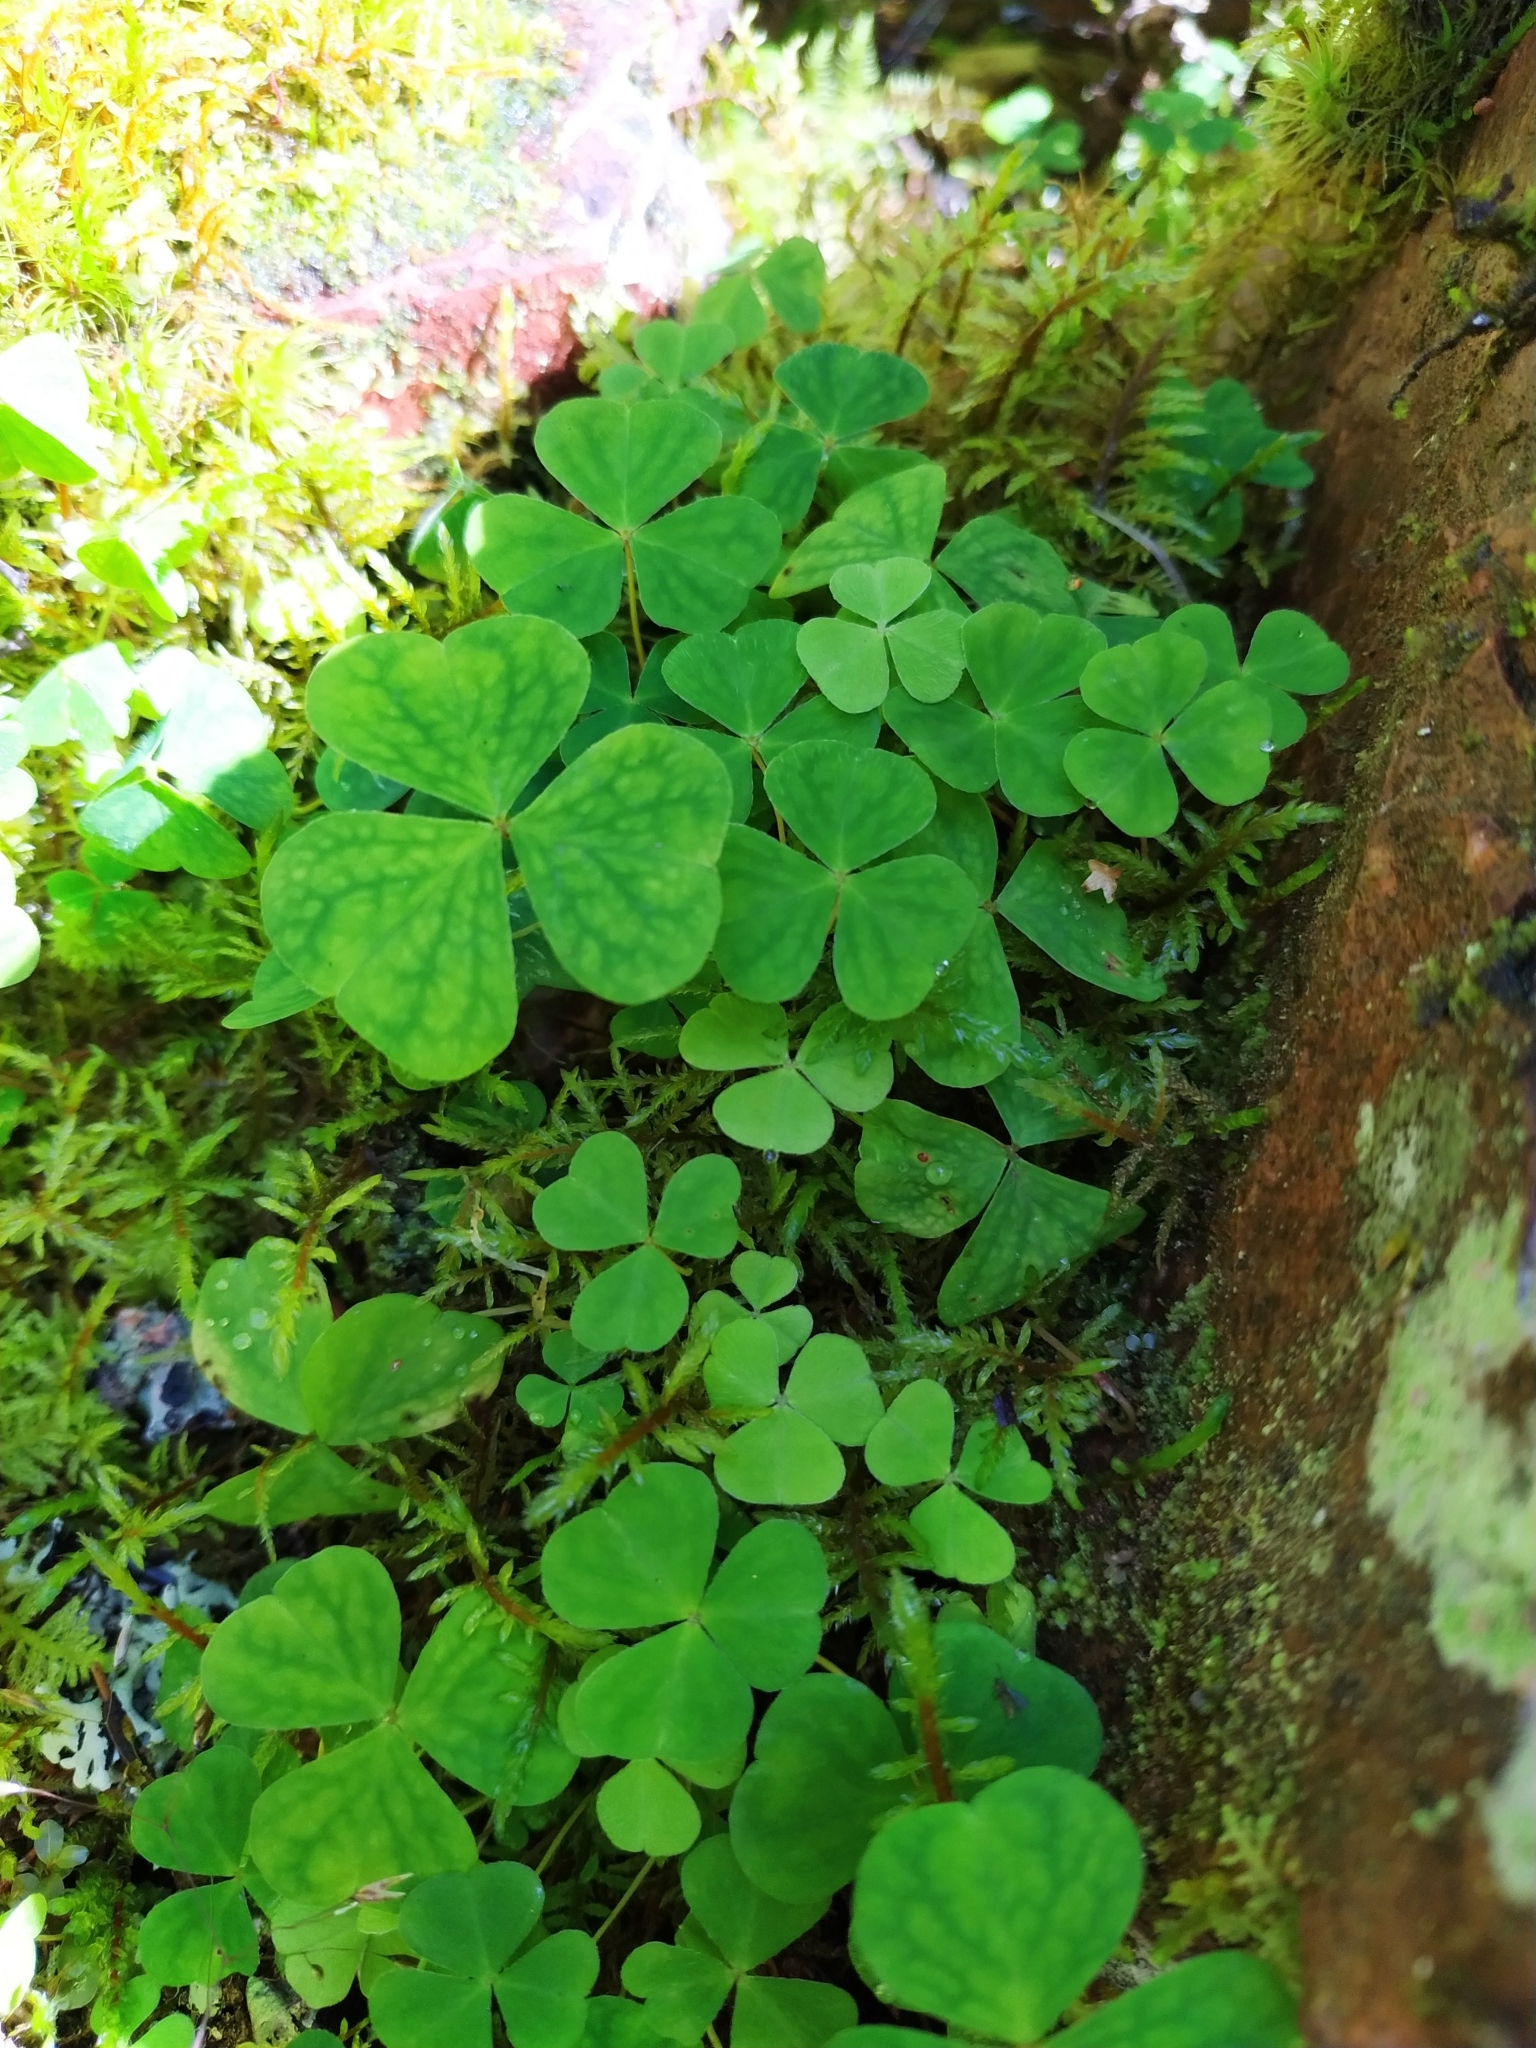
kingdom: Plantae
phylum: Tracheophyta
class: Magnoliopsida
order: Oxalidales
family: Oxalidaceae
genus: Oxalis
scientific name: Oxalis acetosella
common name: Wood-sorrel
